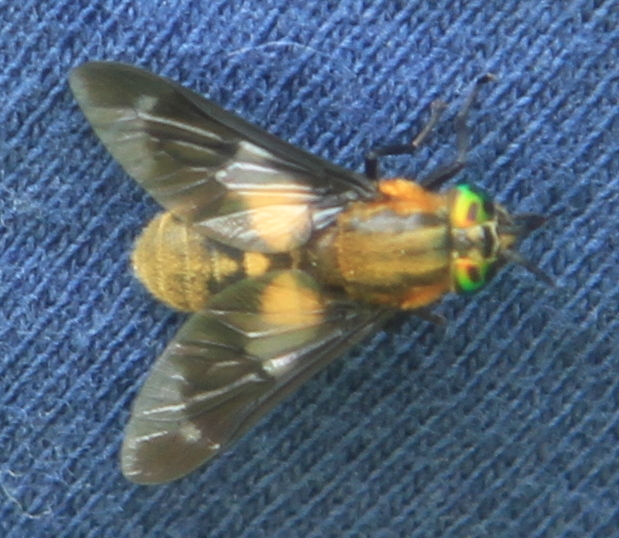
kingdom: Animalia
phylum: Arthropoda
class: Insecta
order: Diptera
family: Tabanidae
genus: Chrysops
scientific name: Chrysops caecutiens
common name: Splayed deerfly
